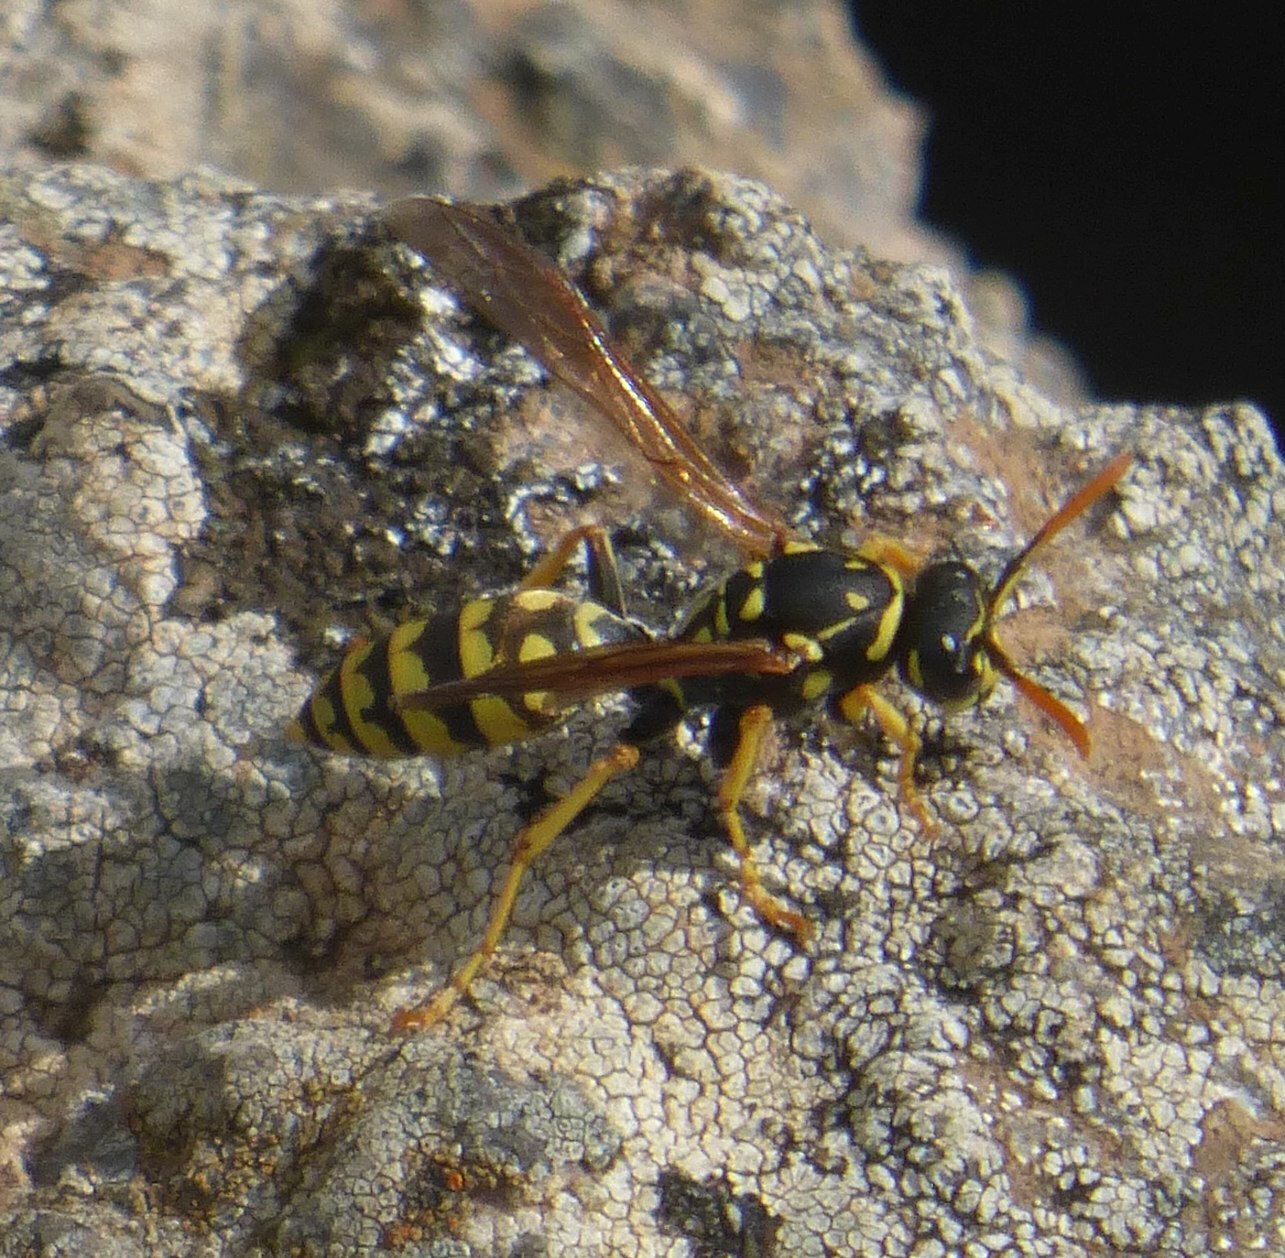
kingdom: Animalia
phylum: Arthropoda
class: Insecta
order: Hymenoptera
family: Eumenidae
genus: Polistes
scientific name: Polistes dominula
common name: Paper wasp
